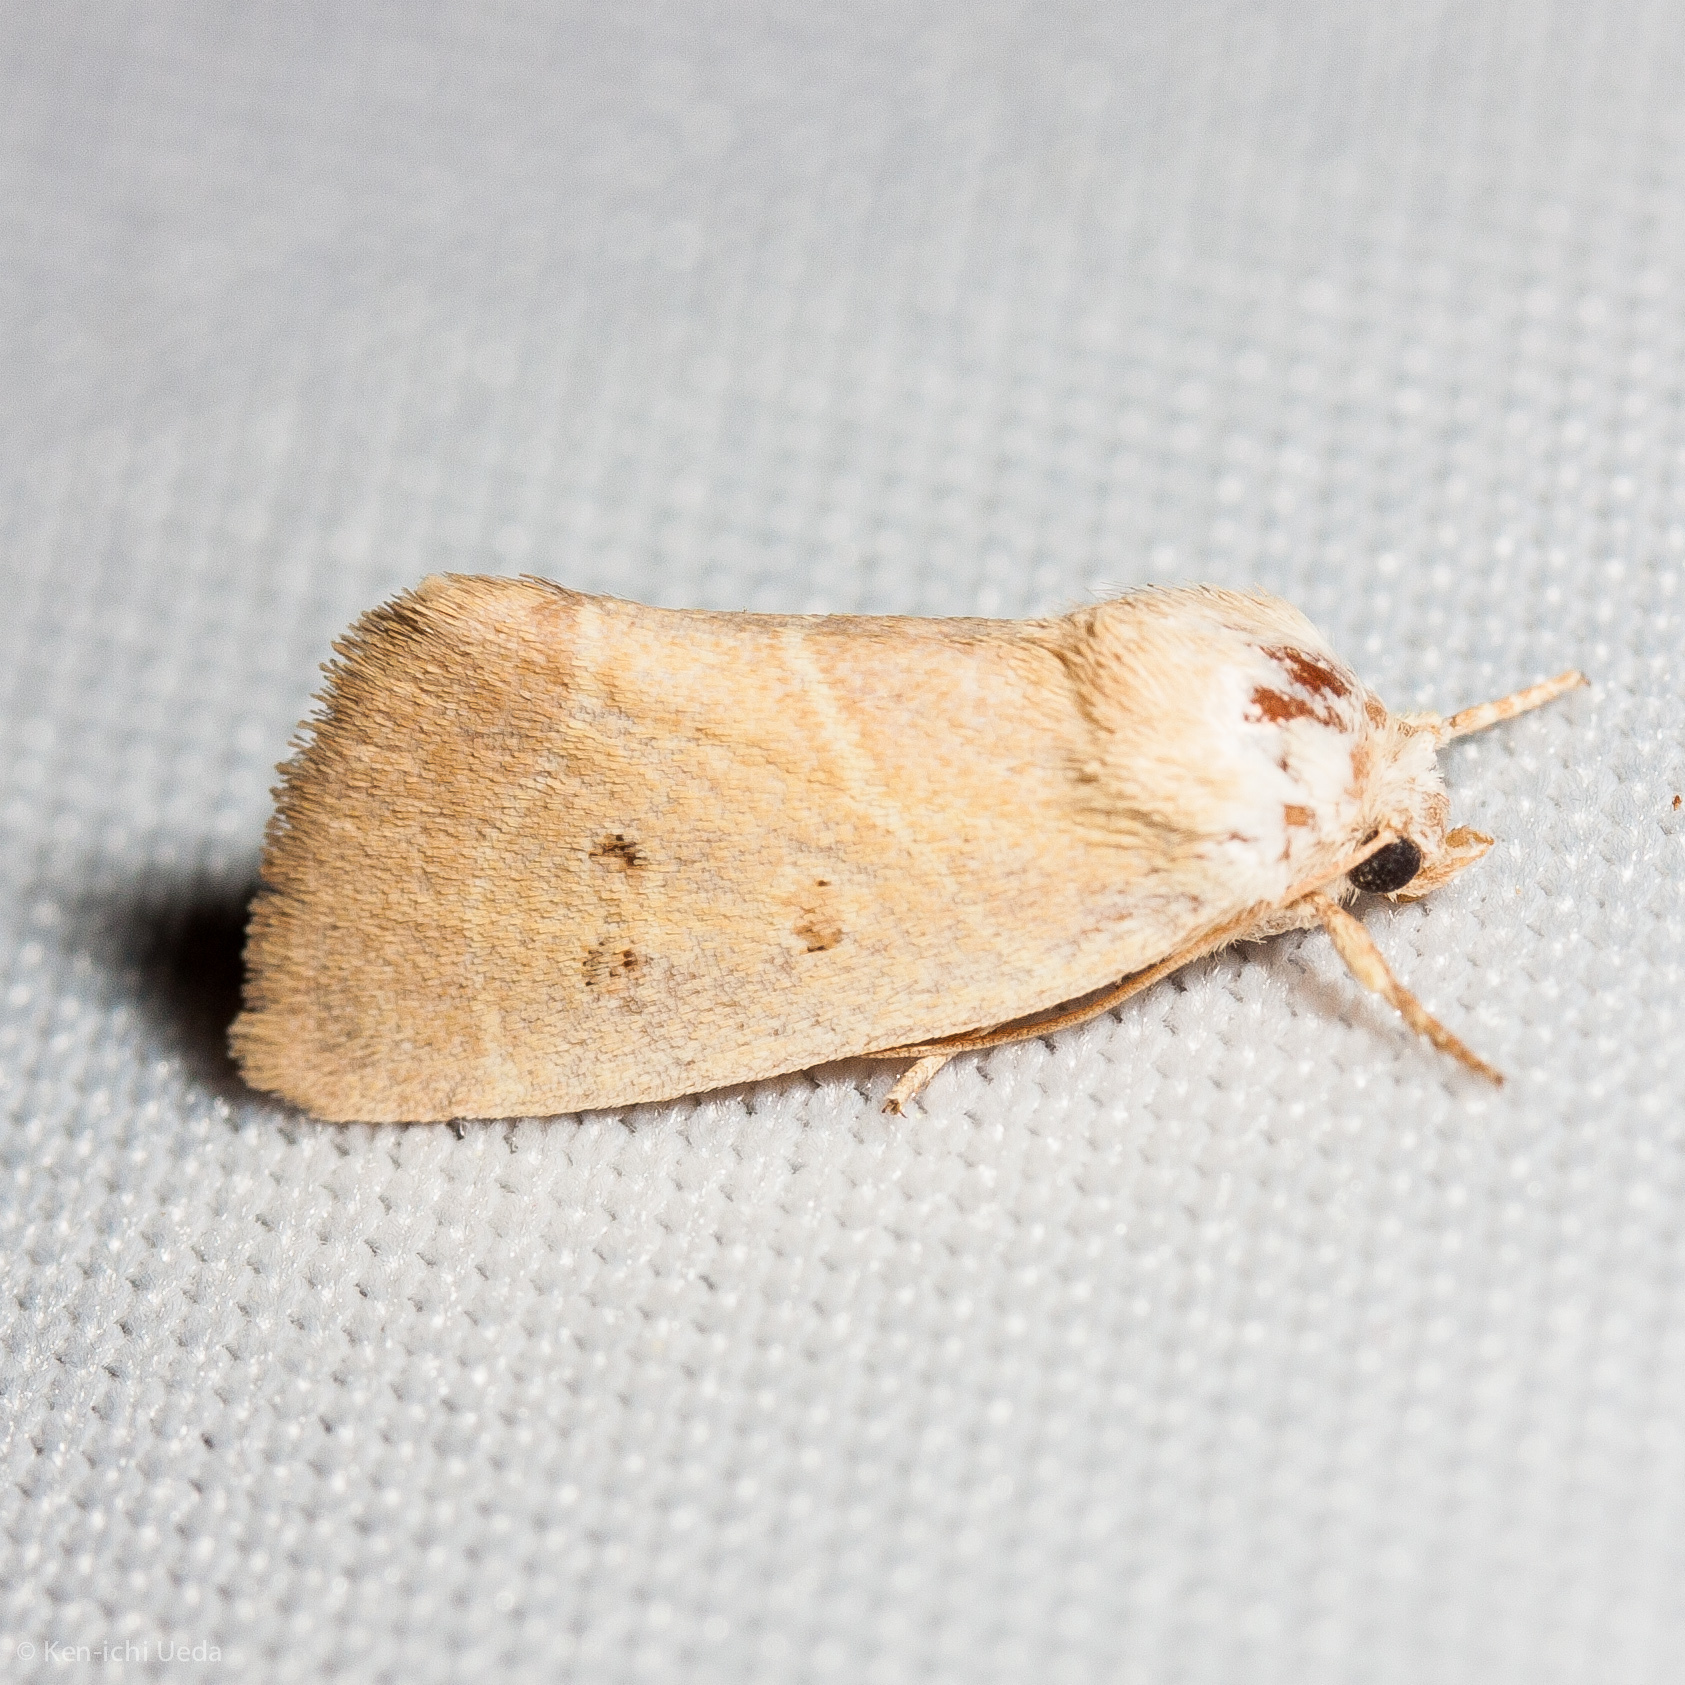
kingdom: Animalia
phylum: Arthropoda
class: Insecta
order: Lepidoptera
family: Noctuidae
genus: Cosmia
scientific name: Cosmia calami
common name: American dun-bar moth
